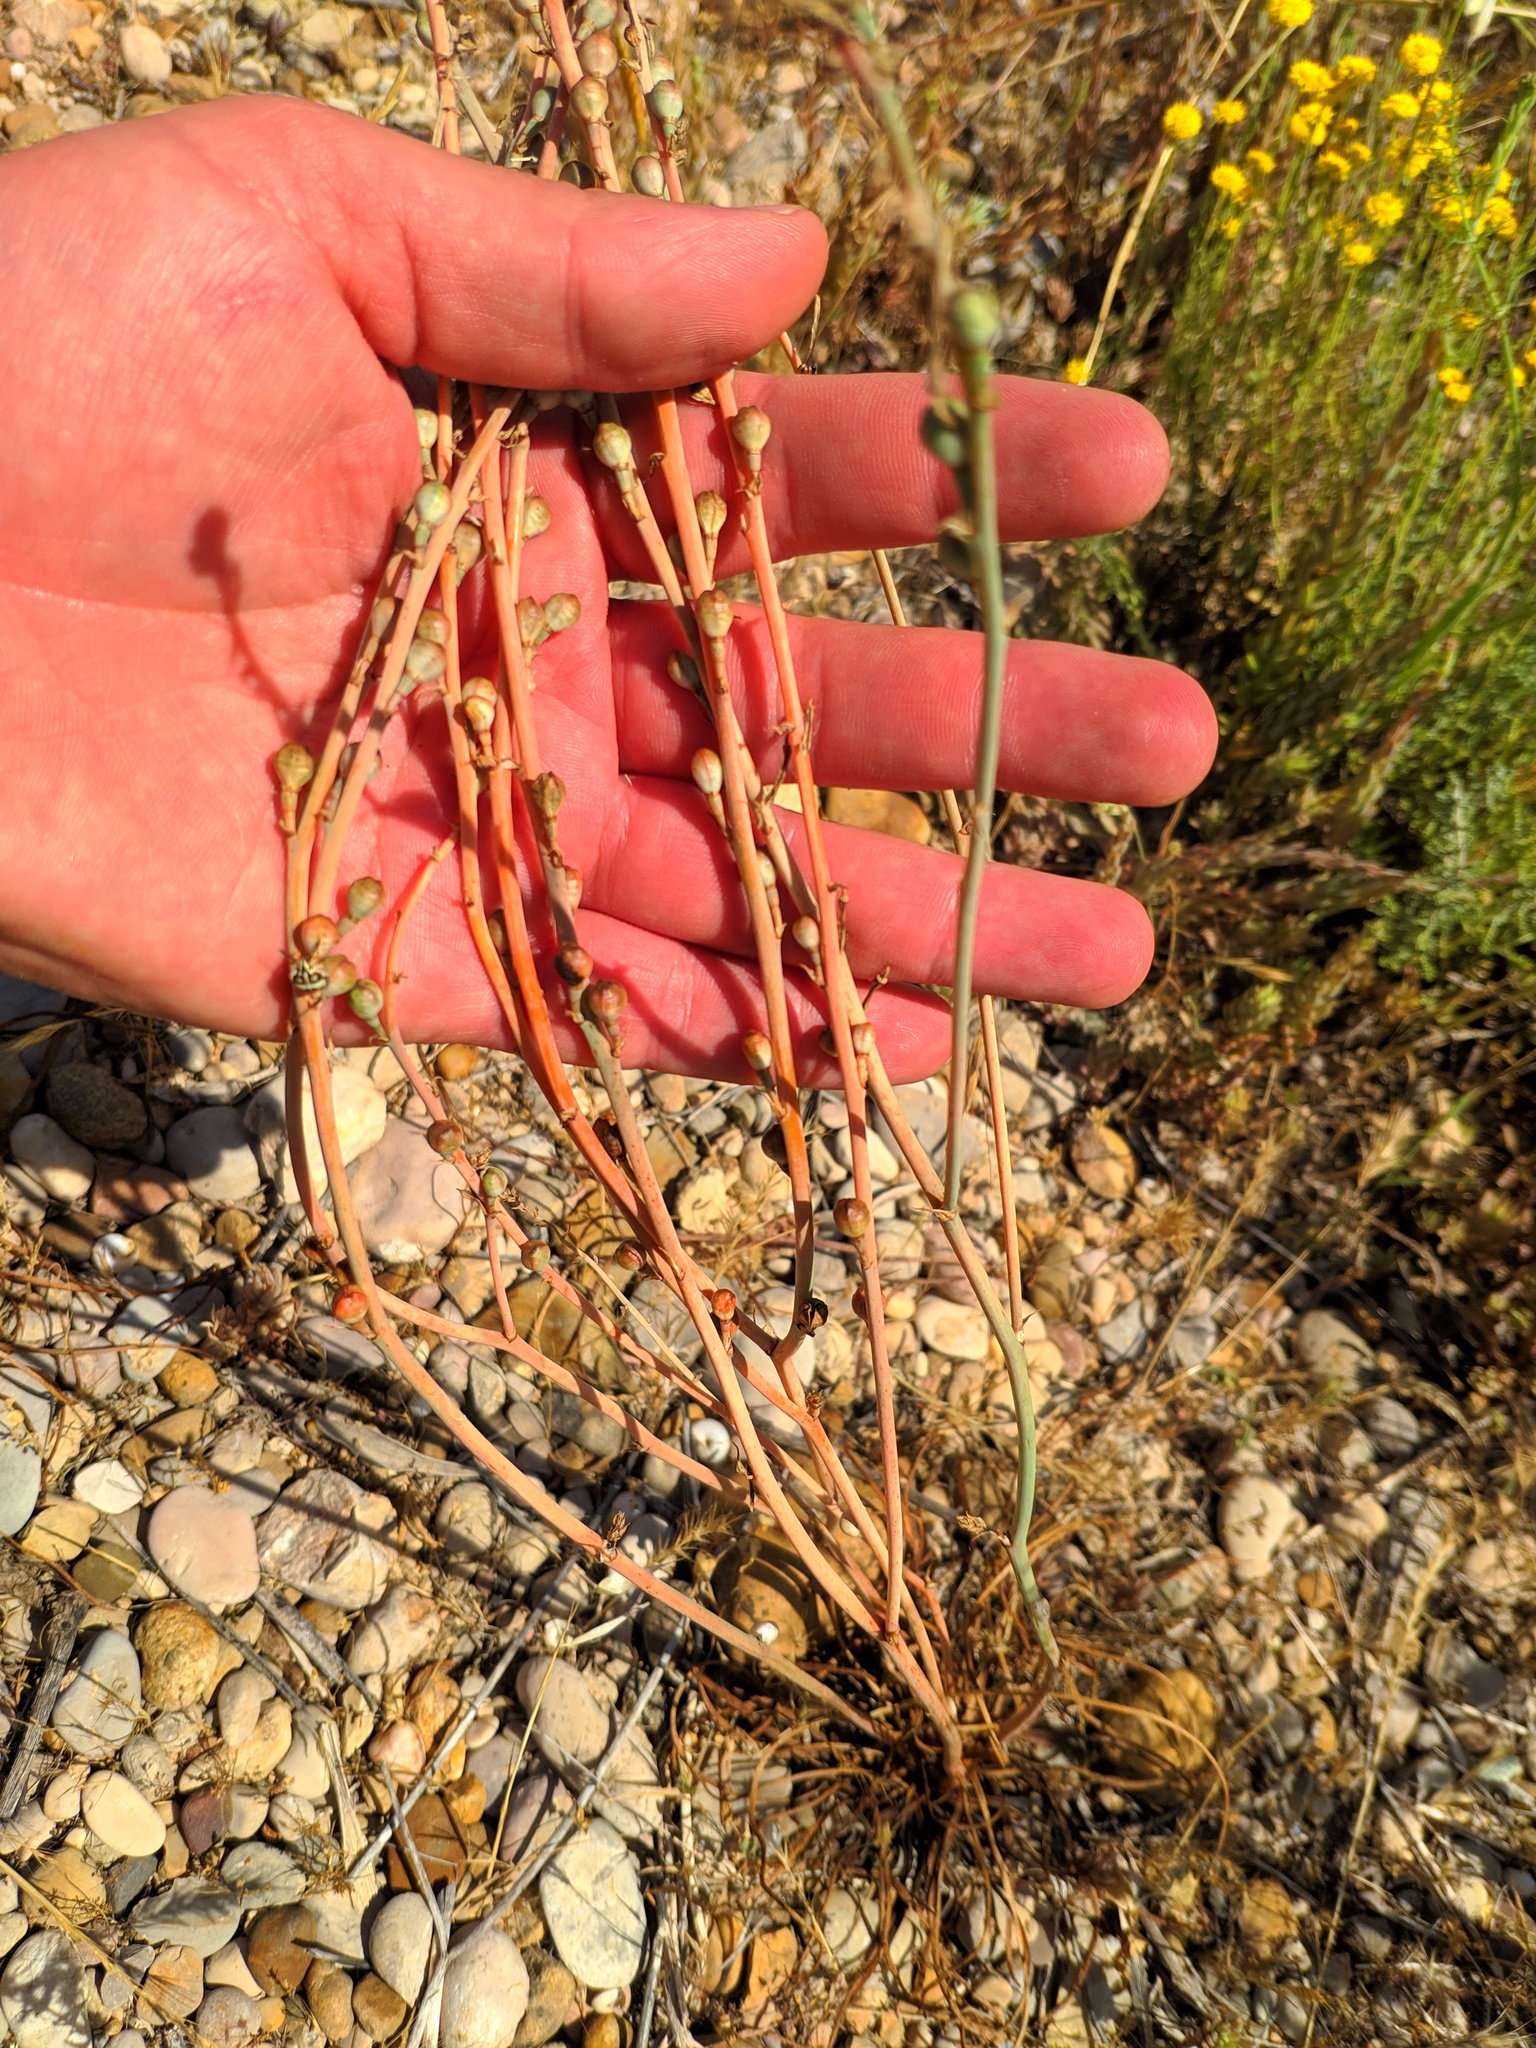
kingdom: Plantae
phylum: Tracheophyta
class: Liliopsida
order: Asparagales
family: Asphodelaceae
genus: Asphodelus
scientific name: Asphodelus fistulosus
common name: Onionweed
